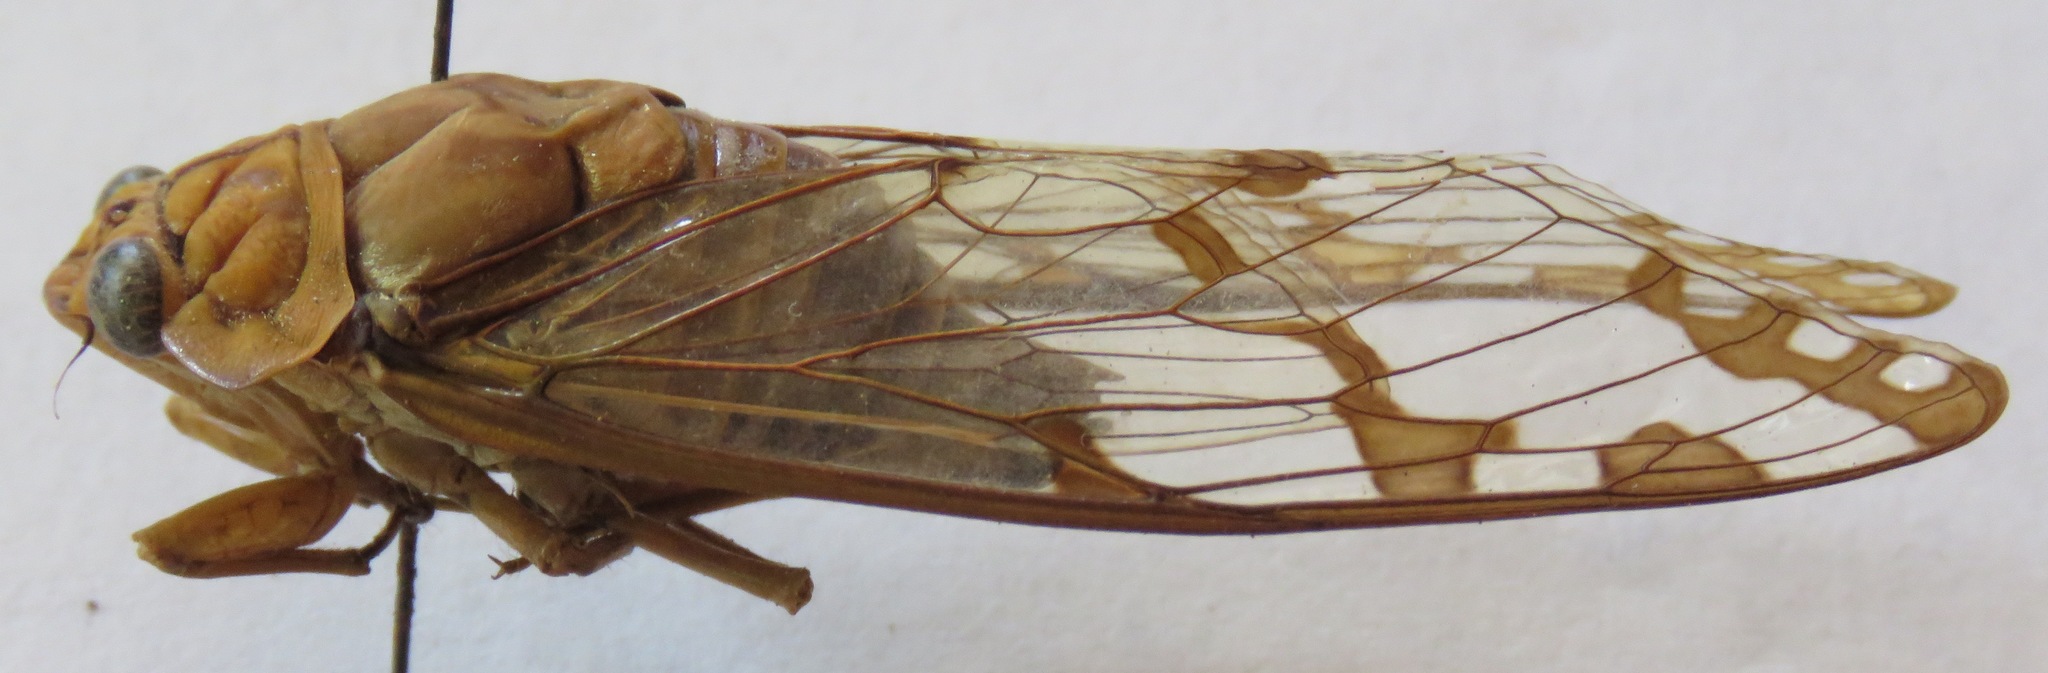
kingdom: Animalia
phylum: Arthropoda
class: Insecta
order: Hemiptera
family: Cicadidae
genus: Zammara
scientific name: Zammara smaragdina
